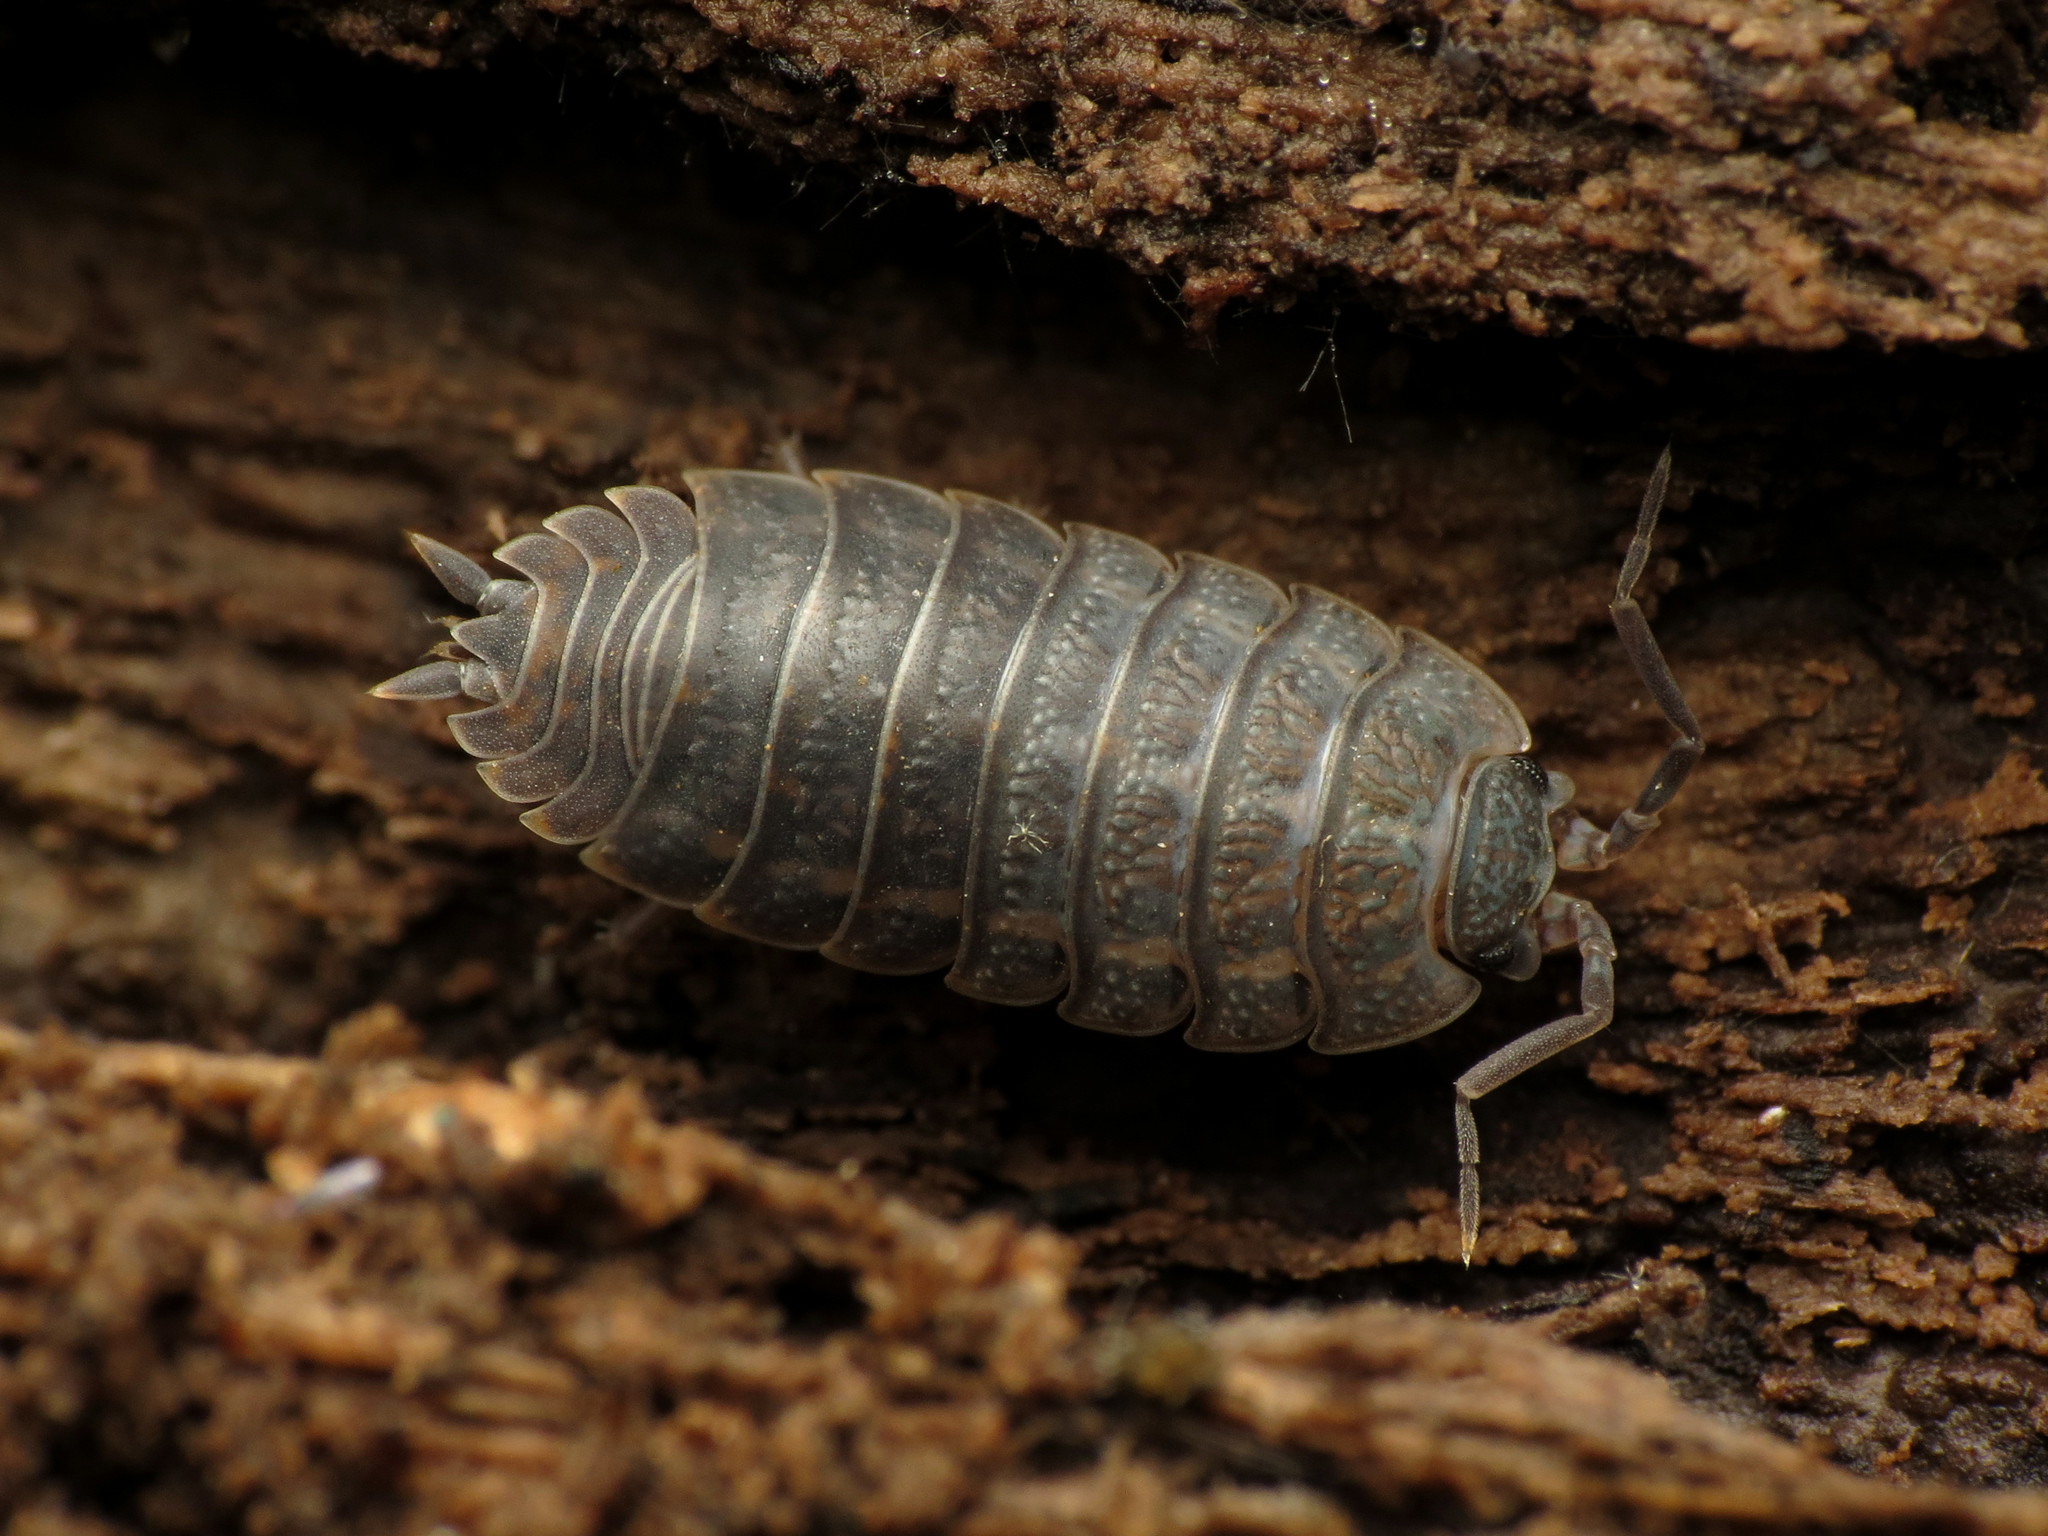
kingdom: Animalia
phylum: Arthropoda
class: Malacostraca
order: Isopoda
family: Trachelipodidae
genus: Trachelipus
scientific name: Trachelipus rathkii
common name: Isopod
